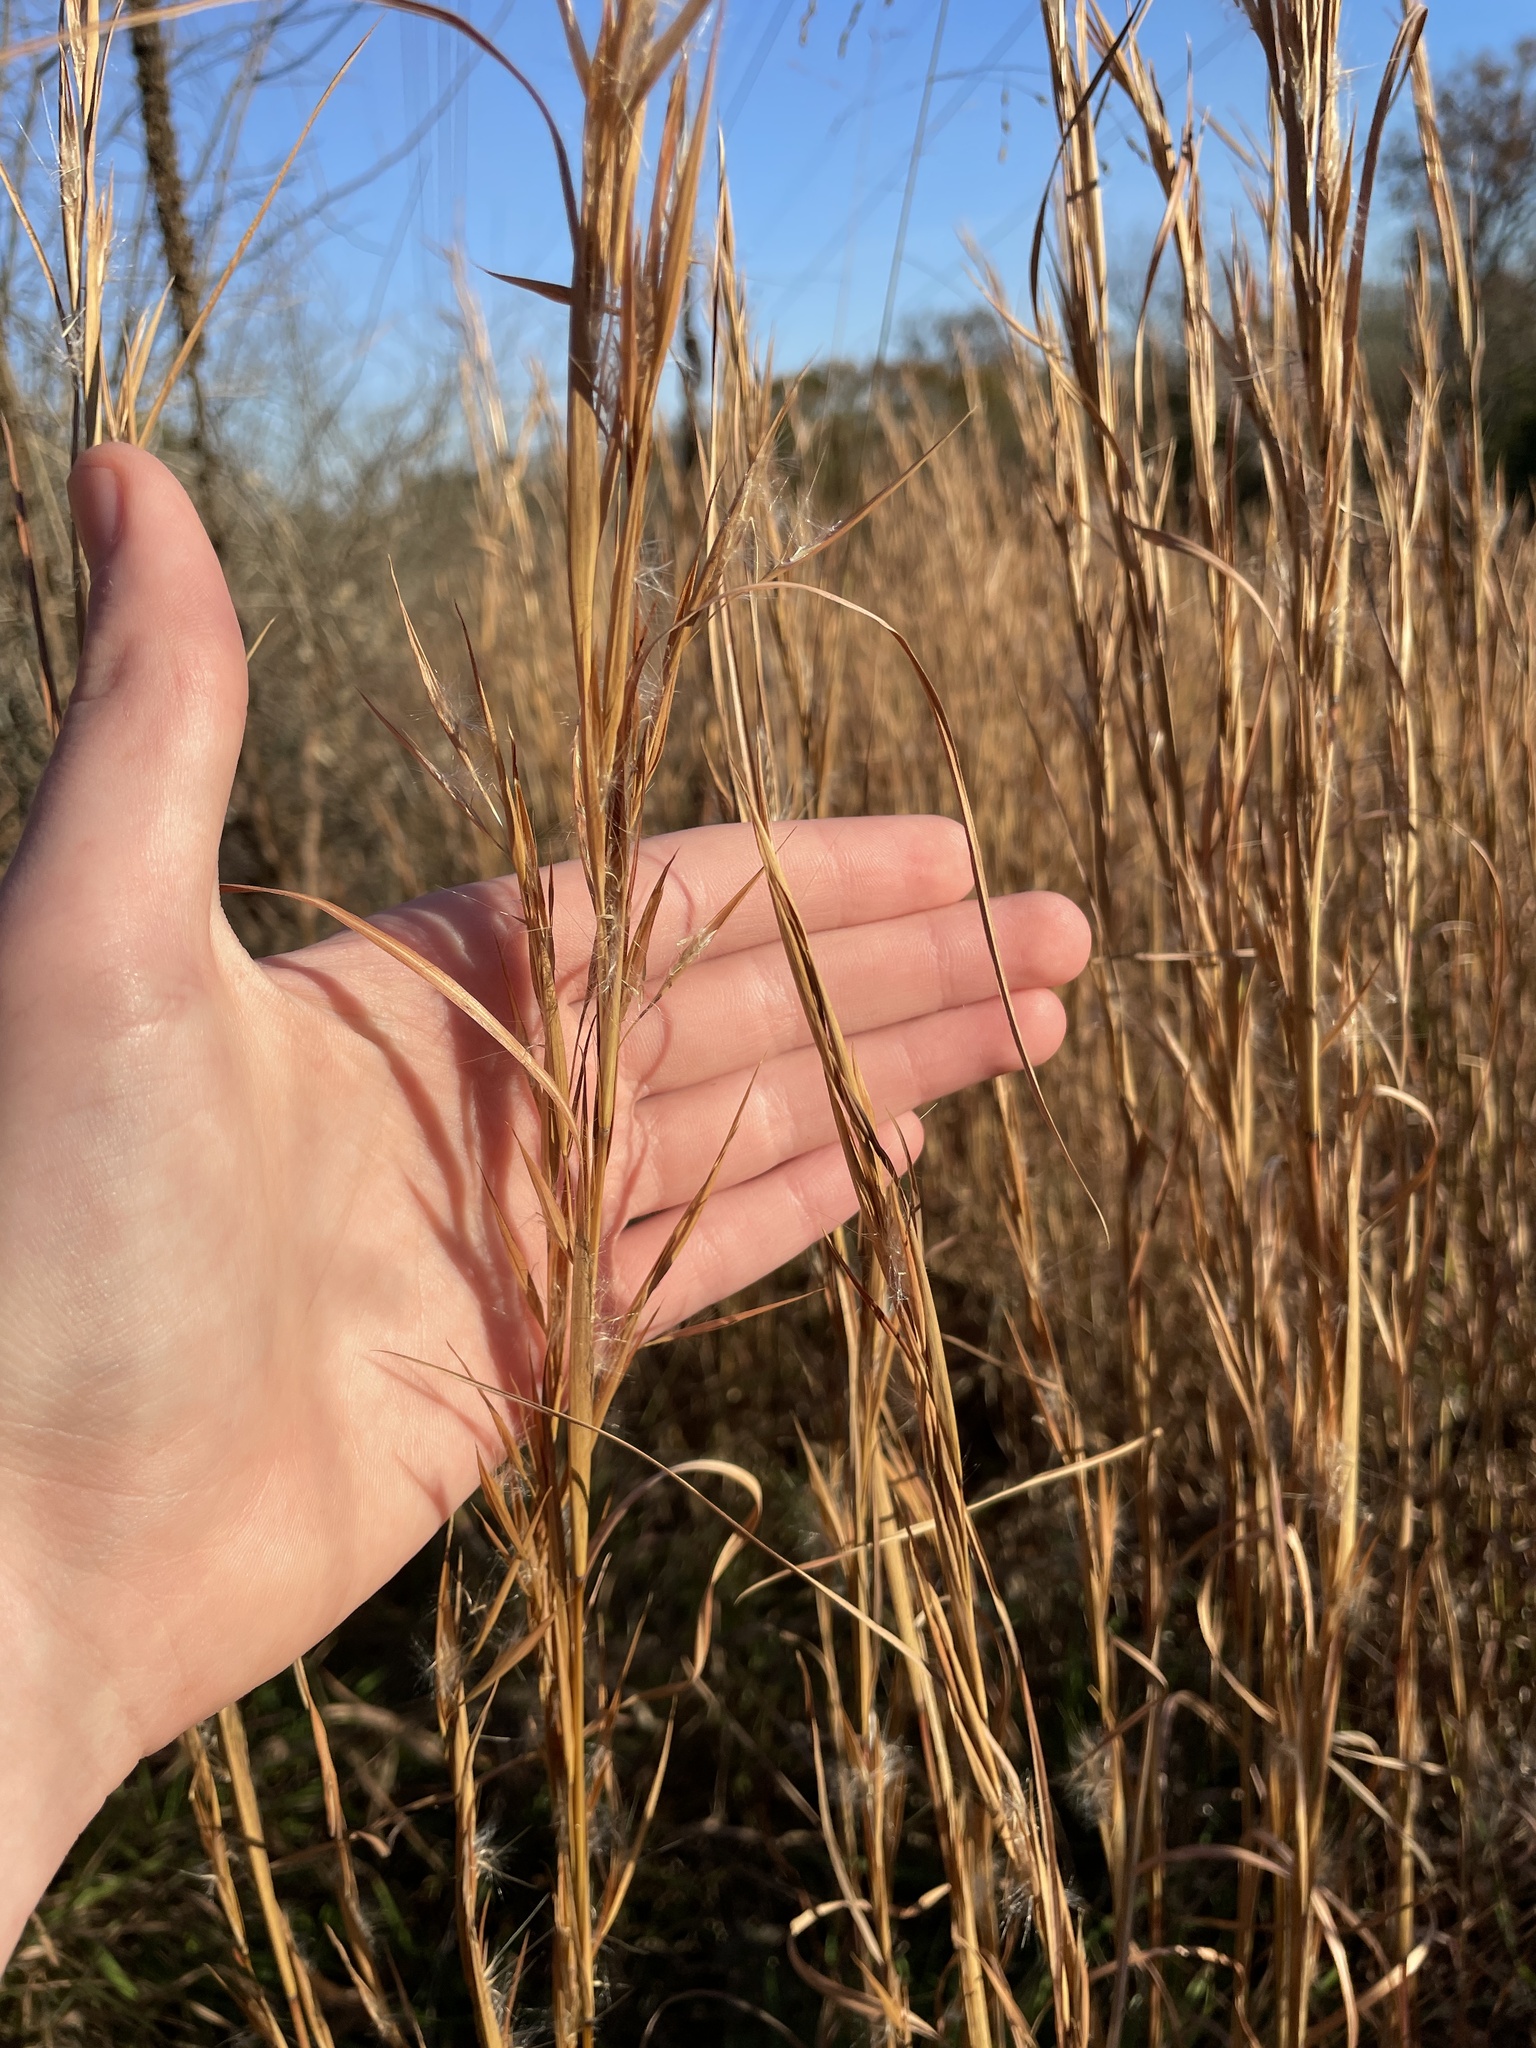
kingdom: Plantae
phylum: Tracheophyta
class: Liliopsida
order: Poales
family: Poaceae
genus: Andropogon
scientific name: Andropogon virginicus
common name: Broomsedge bluestem
